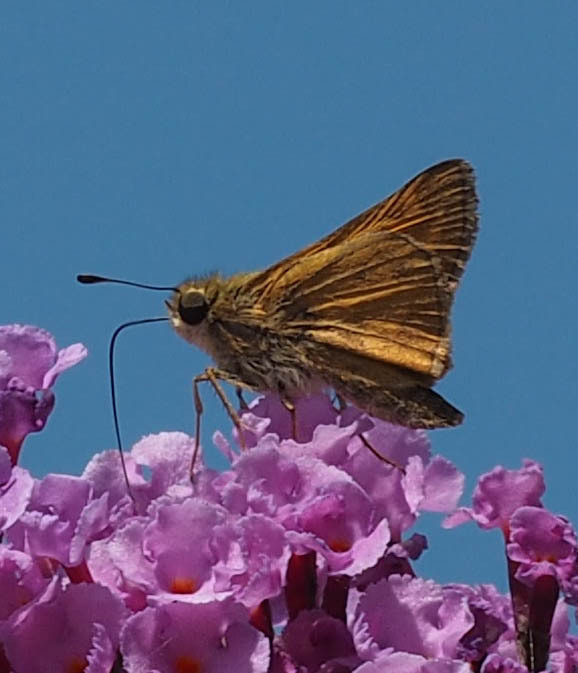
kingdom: Animalia
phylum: Arthropoda
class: Insecta
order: Lepidoptera
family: Hesperiidae
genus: Atalopedes
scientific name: Atalopedes
